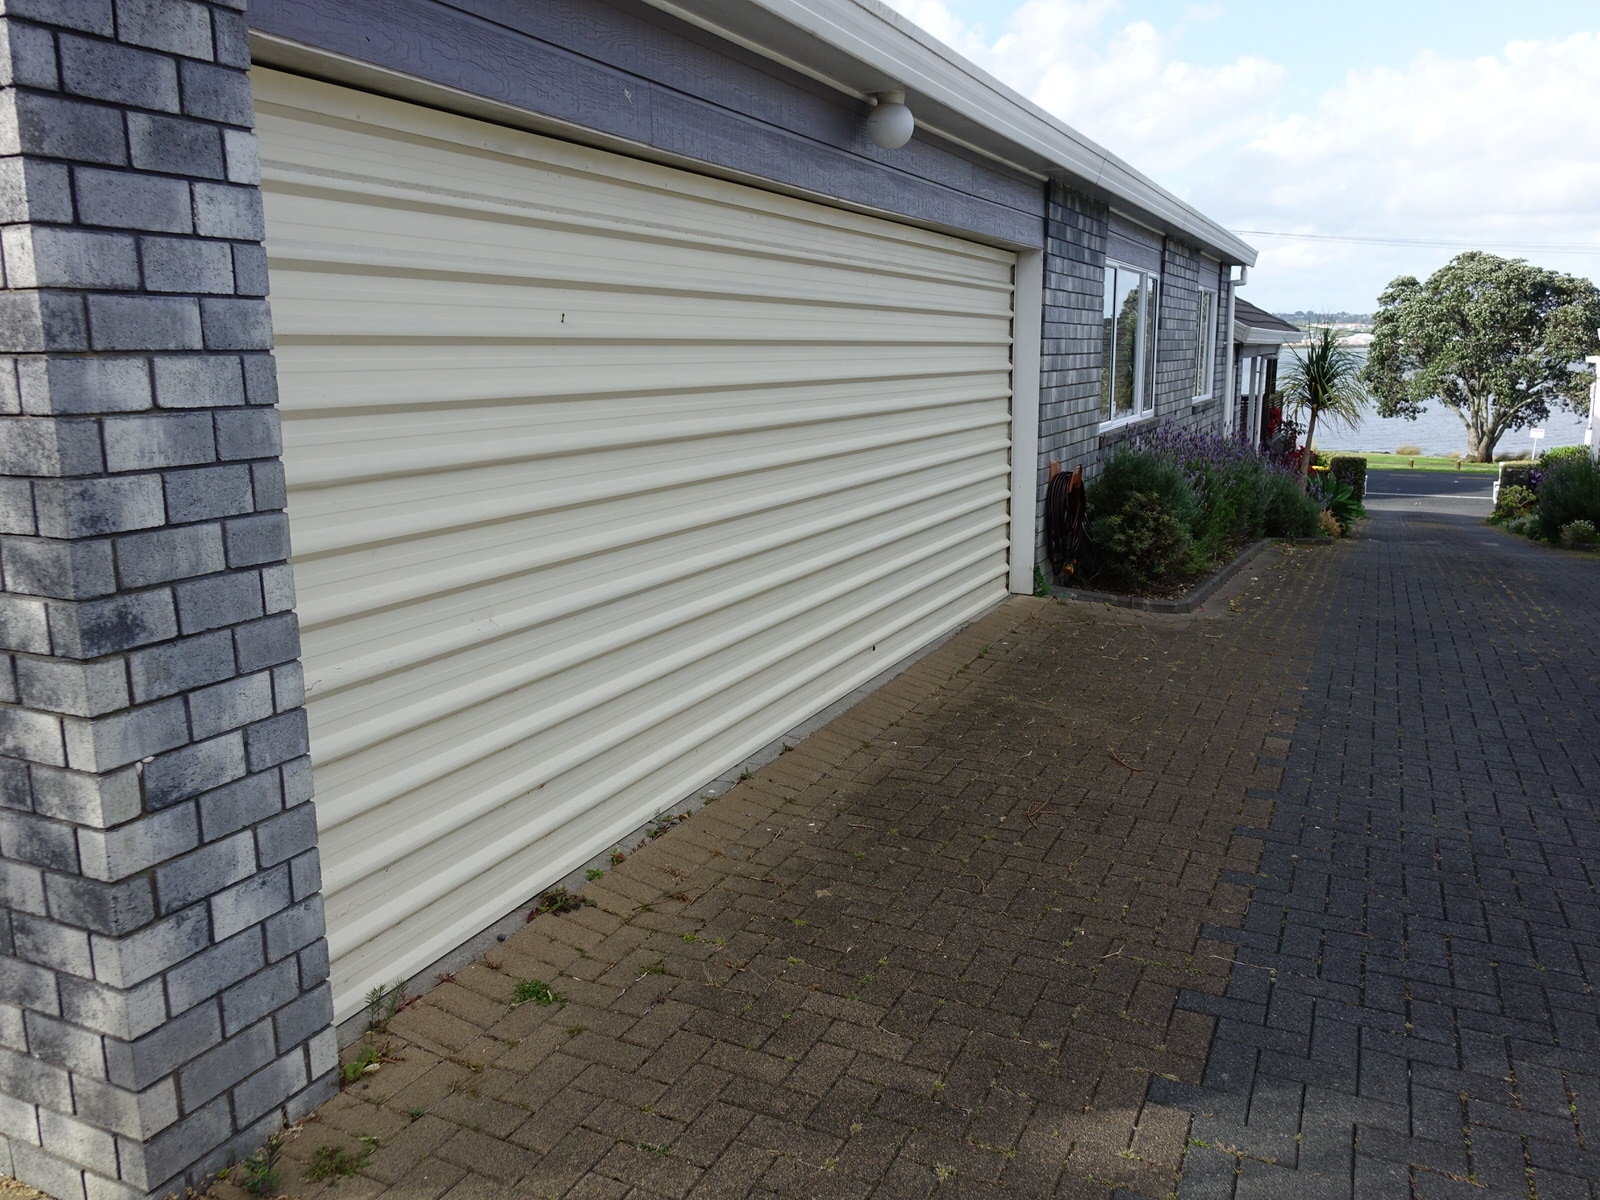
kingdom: Animalia
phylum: Arthropoda
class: Insecta
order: Lepidoptera
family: Nymphalidae
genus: Danaus
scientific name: Danaus plexippus
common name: Monarch
